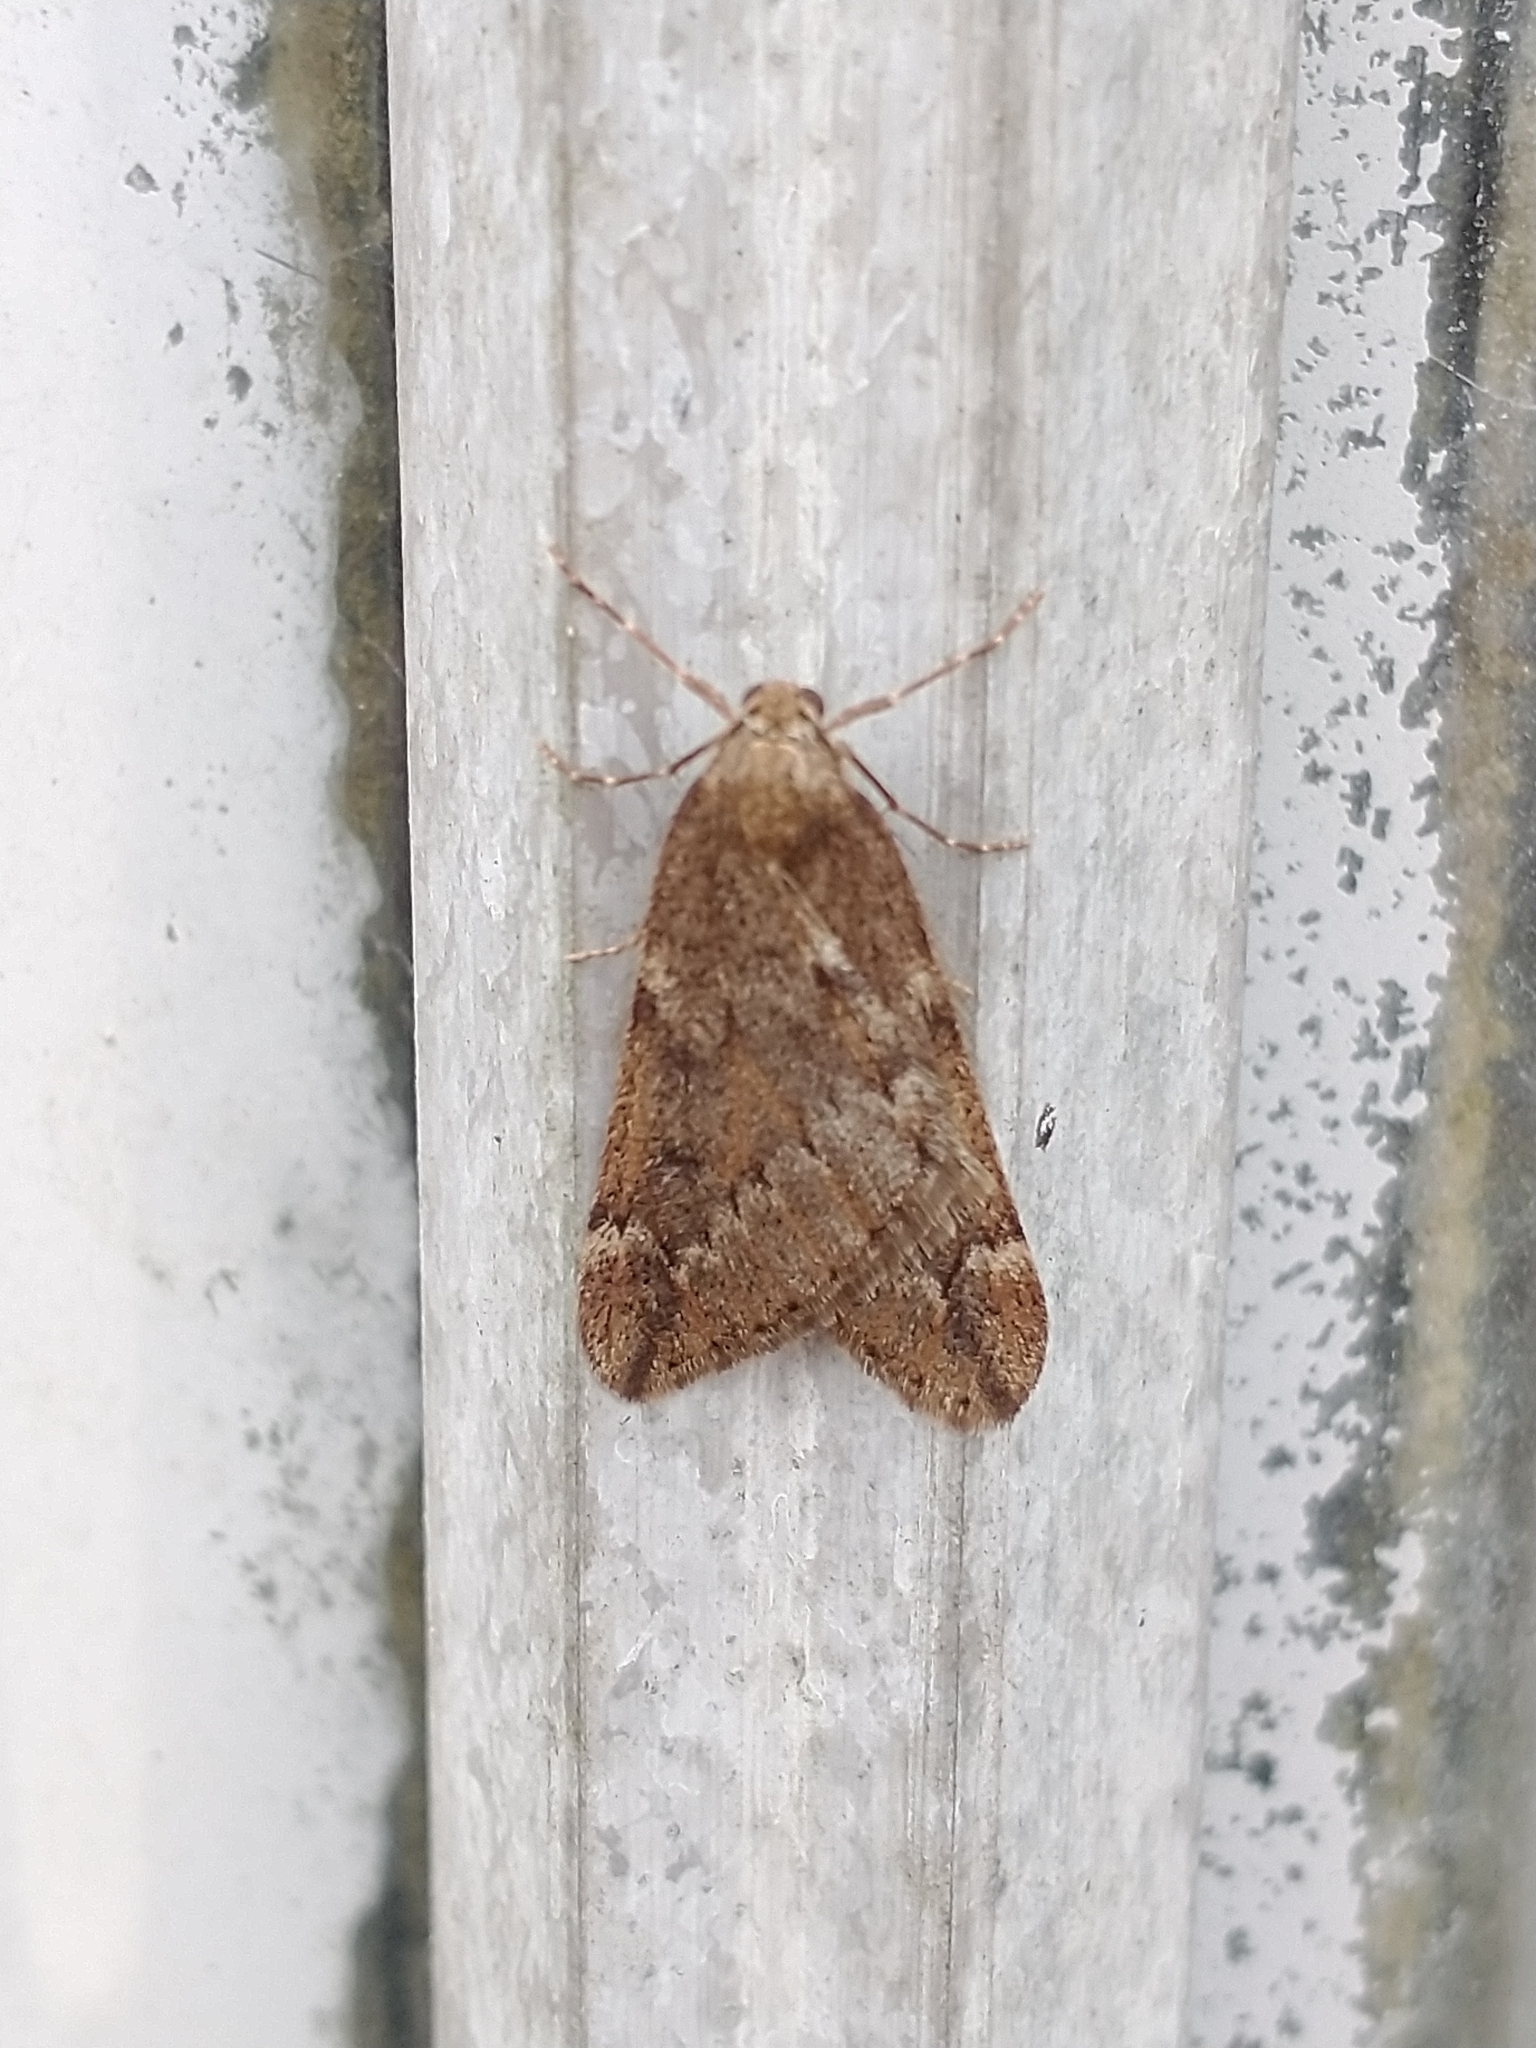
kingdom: Animalia
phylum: Arthropoda
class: Insecta
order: Lepidoptera
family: Geometridae
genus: Alsophila
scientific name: Alsophila aescularia
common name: March moth
